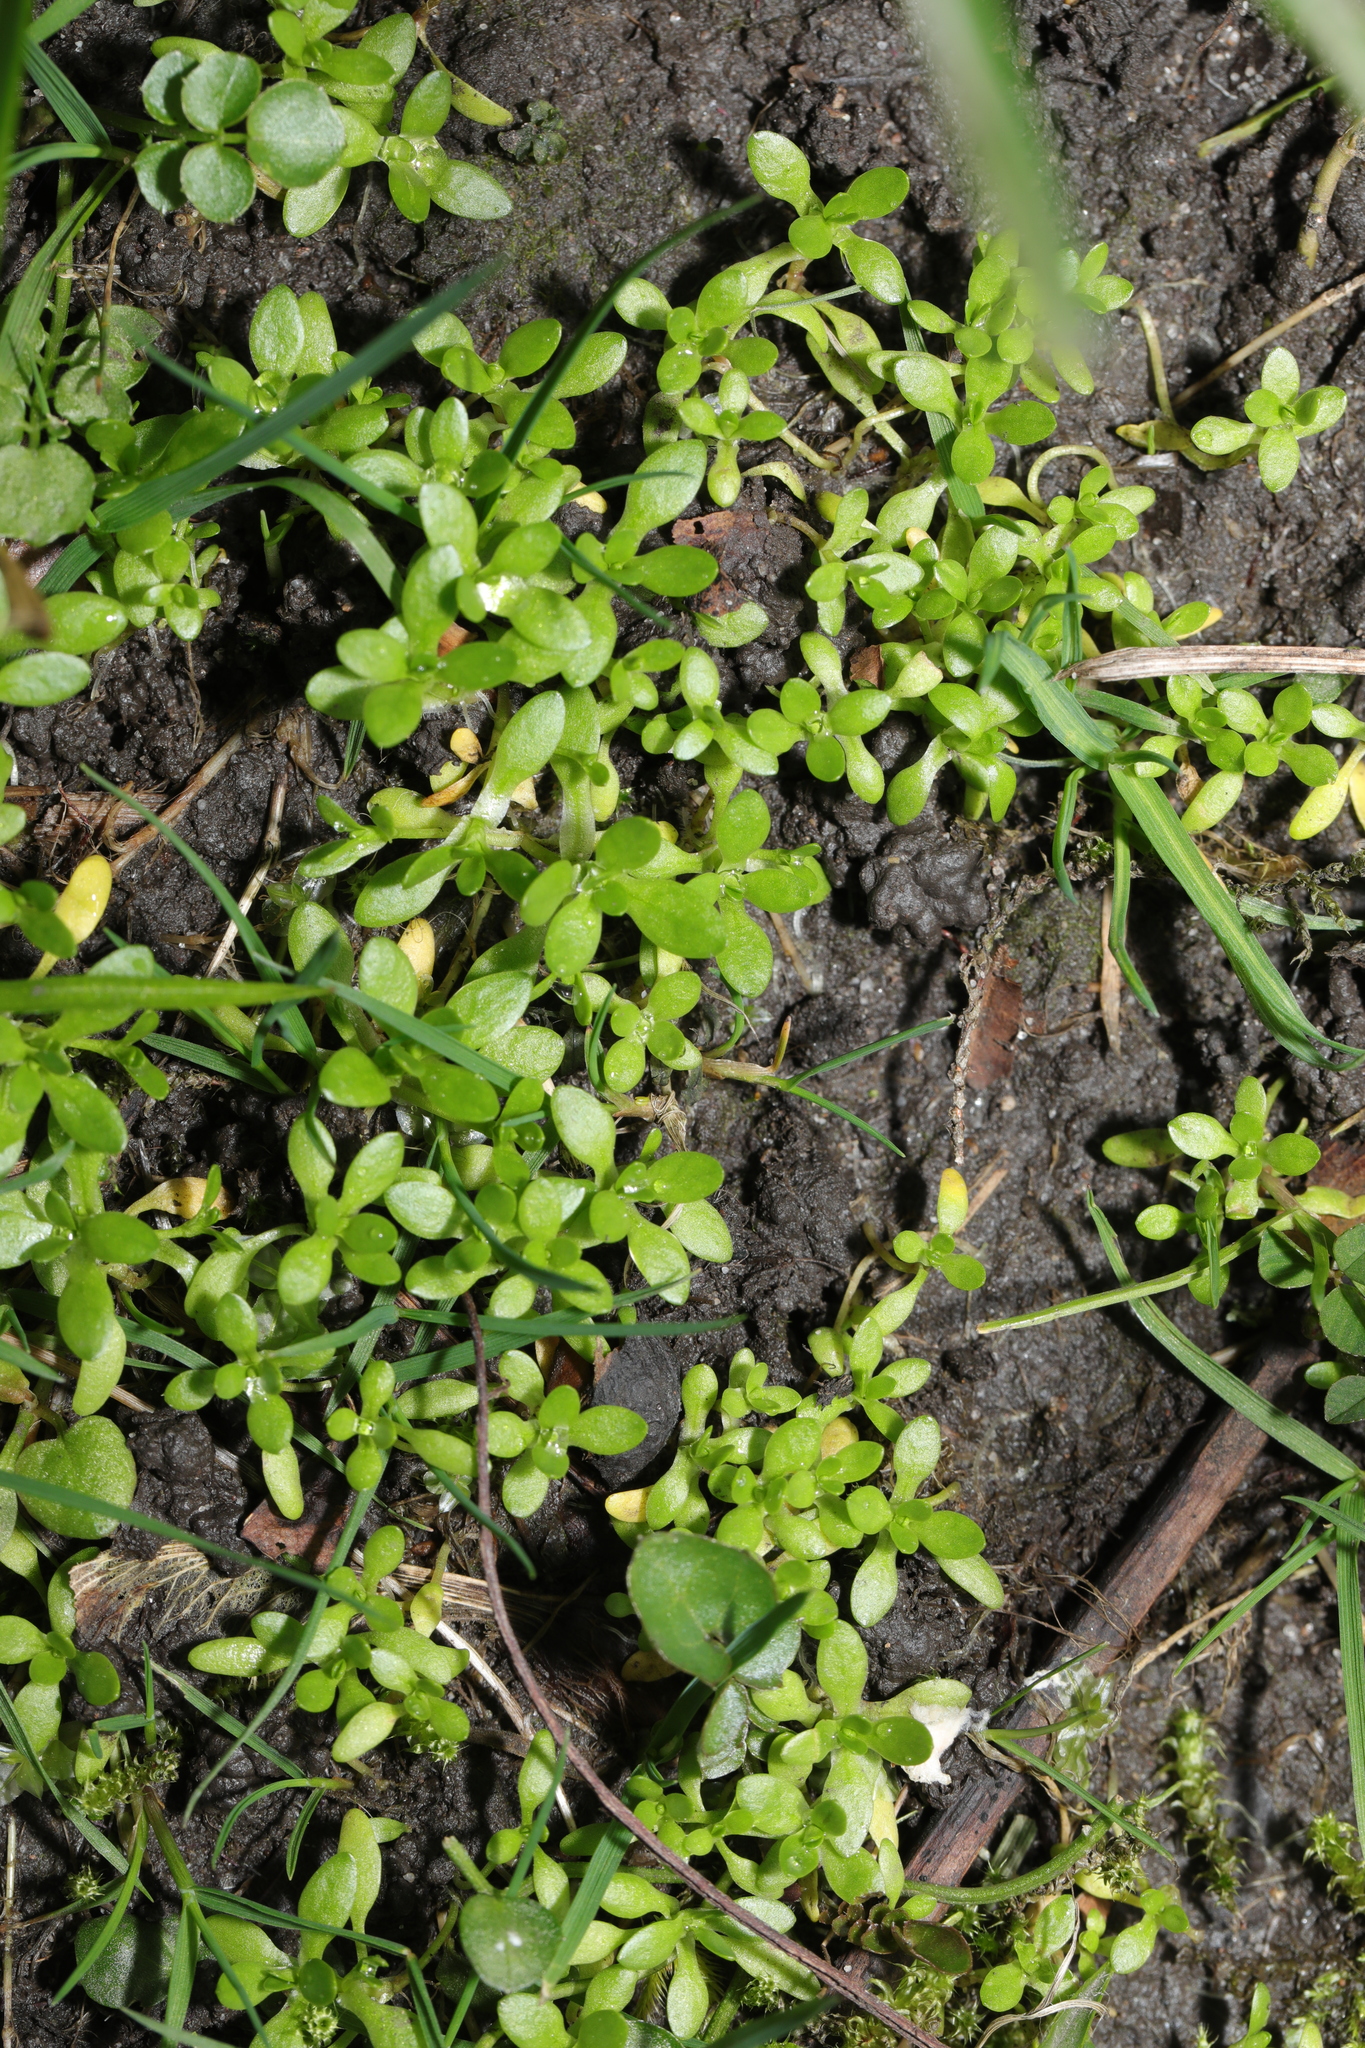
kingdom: Plantae
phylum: Tracheophyta
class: Magnoliopsida
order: Caryophyllales
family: Montiaceae
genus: Montia
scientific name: Montia fontana
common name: Blinks
